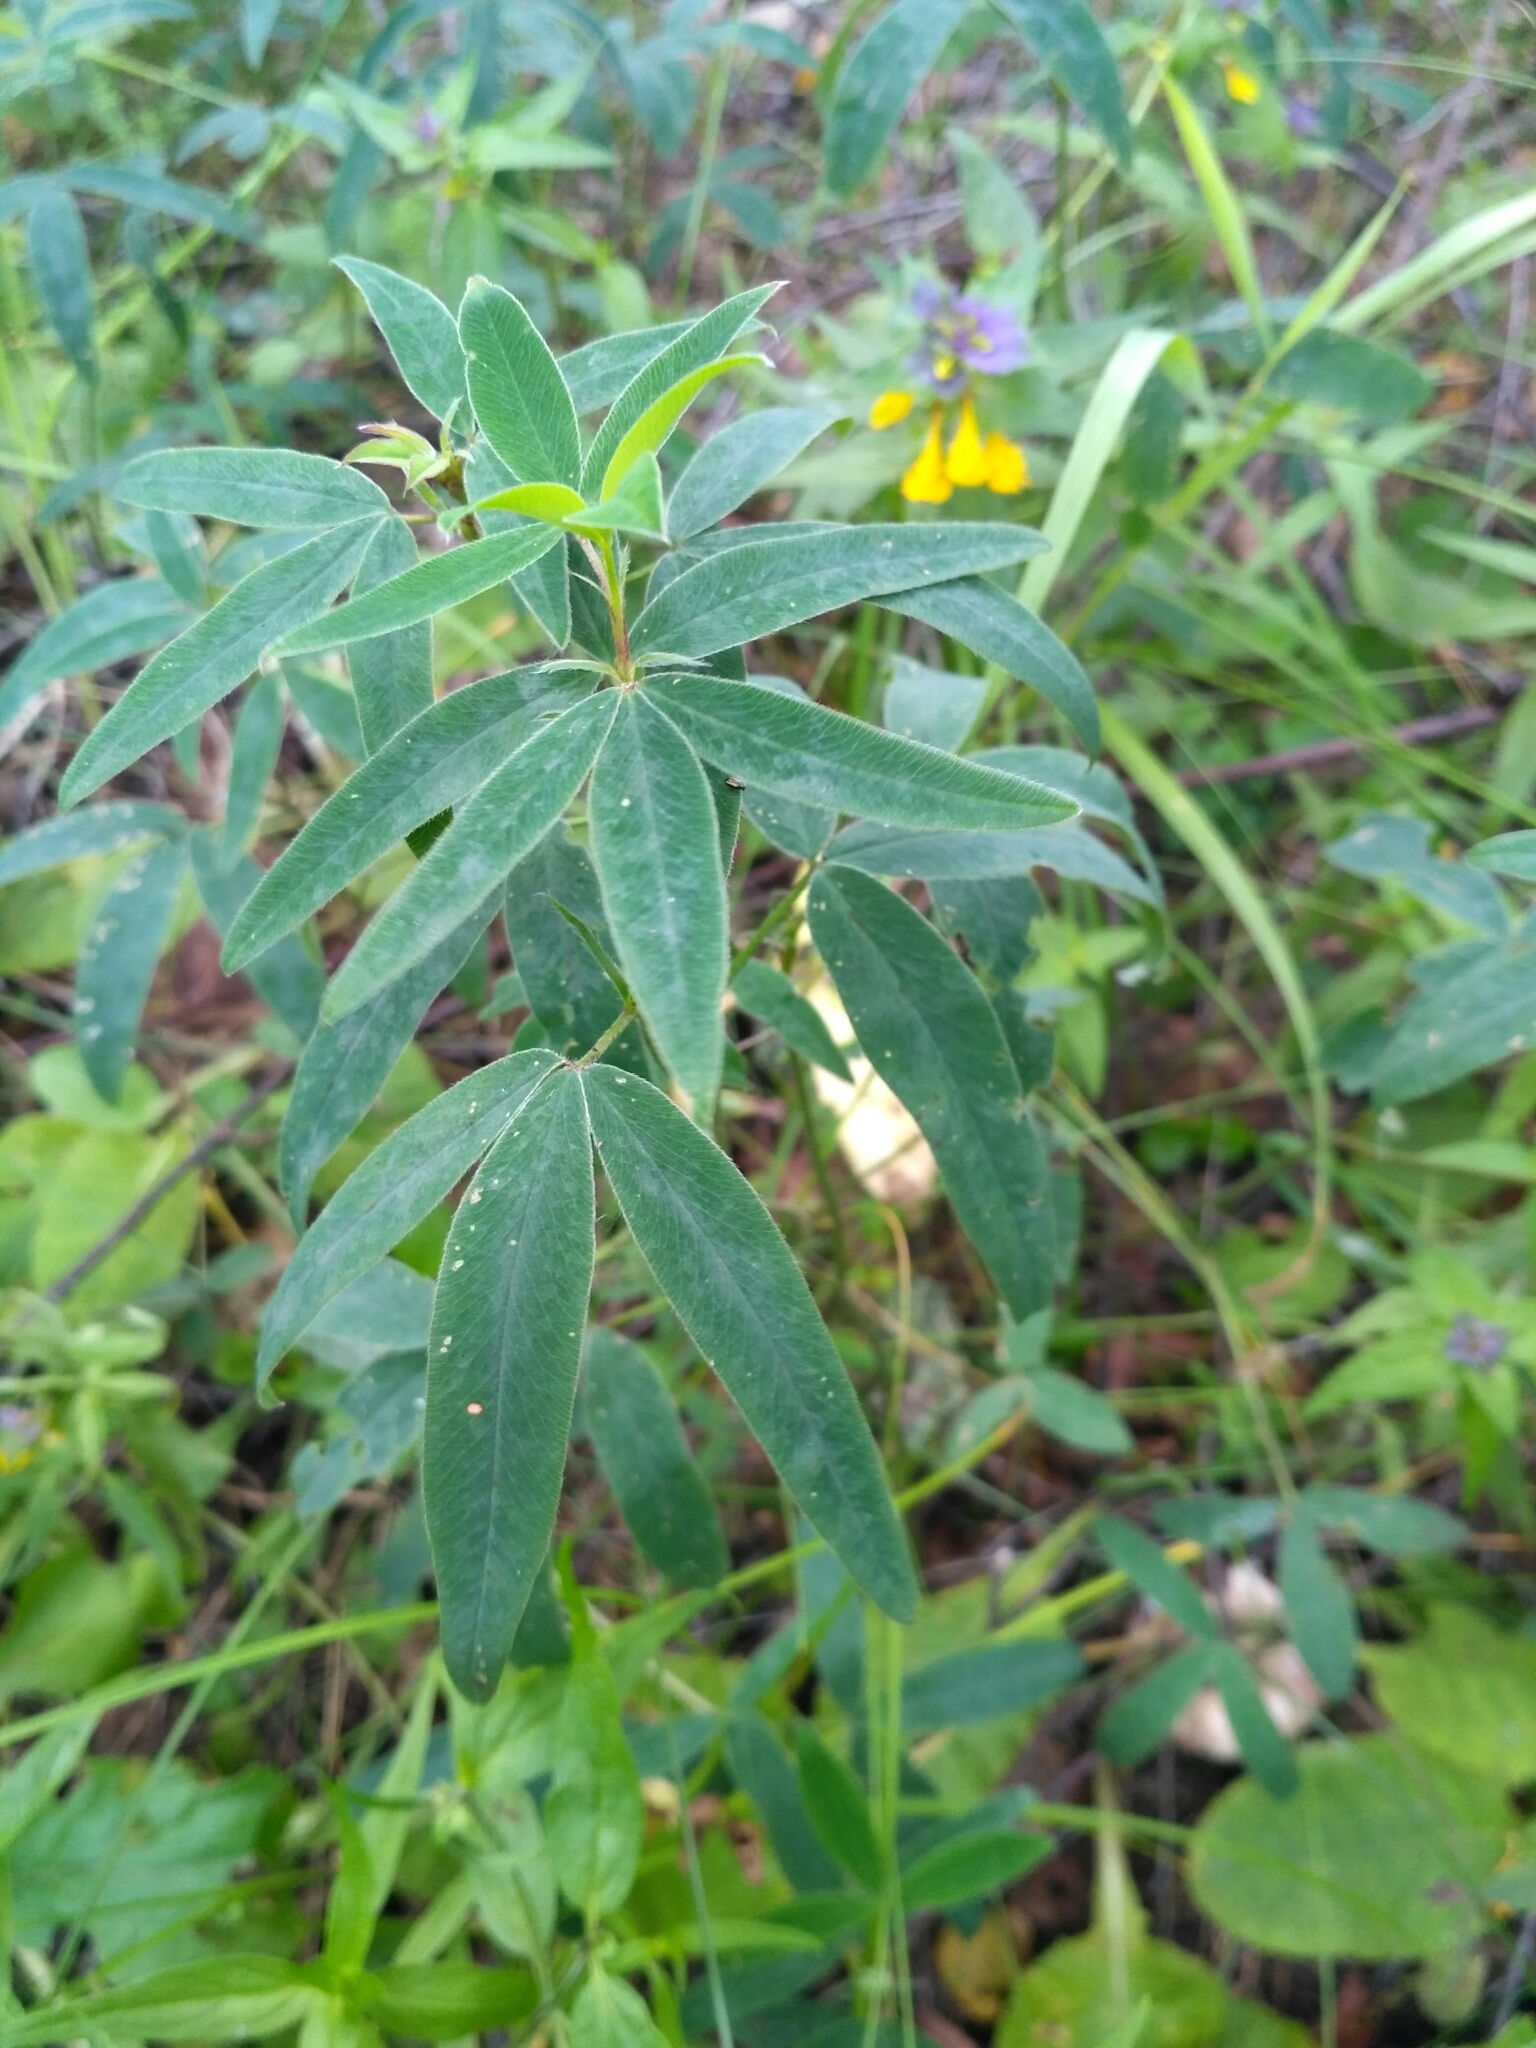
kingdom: Plantae
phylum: Tracheophyta
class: Magnoliopsida
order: Fabales
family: Fabaceae
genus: Trifolium
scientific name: Trifolium medium
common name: Zigzag clover
